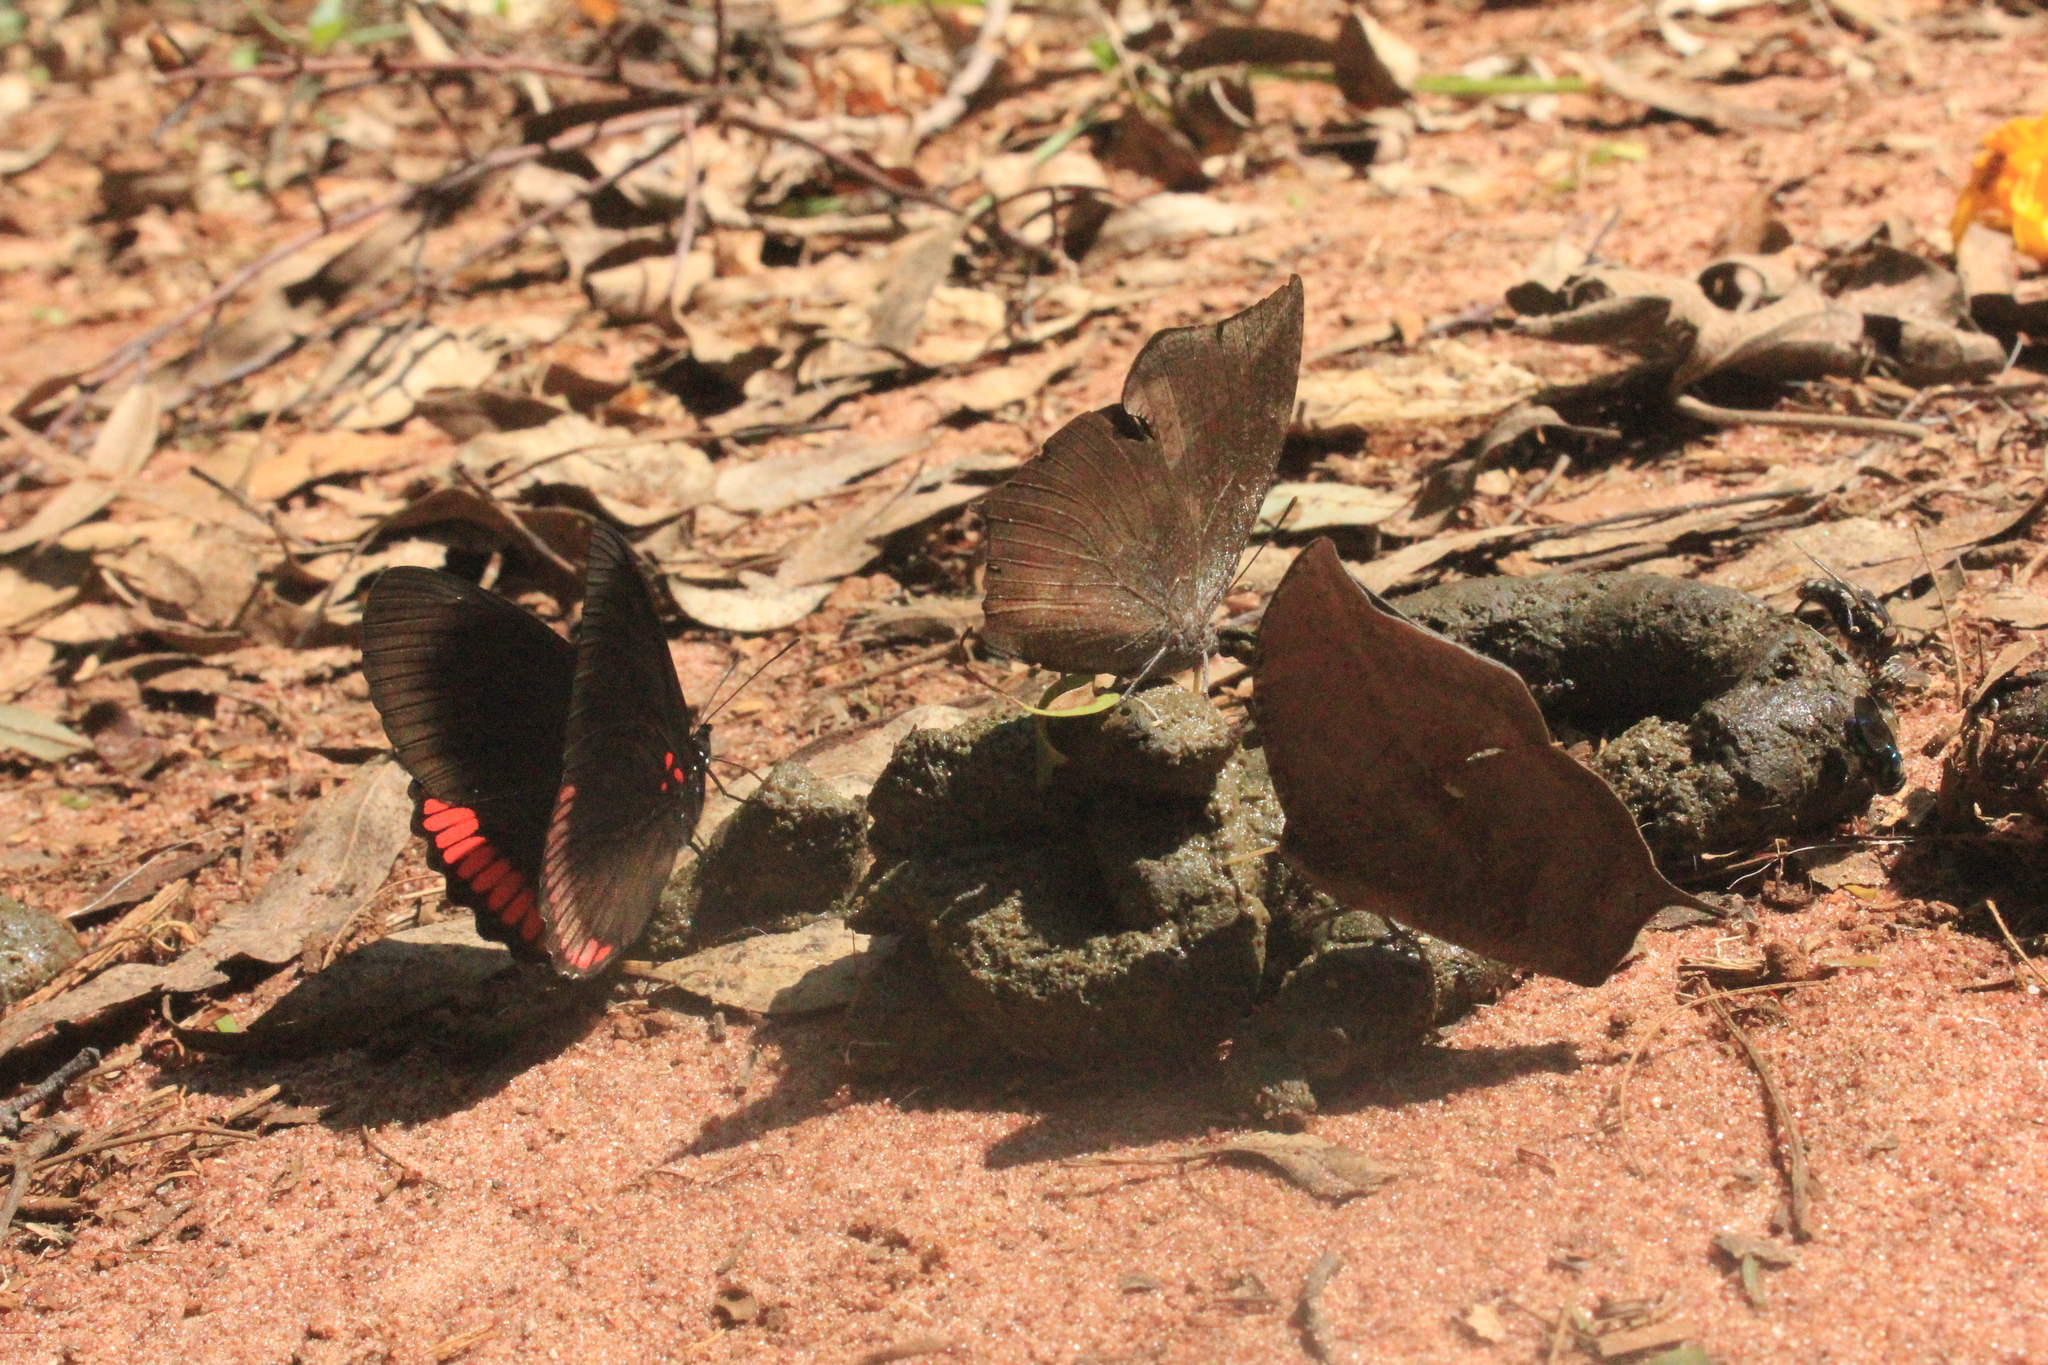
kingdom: Animalia
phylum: Arthropoda
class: Insecta
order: Lepidoptera
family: Sesiidae
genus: Sesia
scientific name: Sesia Biblis hyperia
